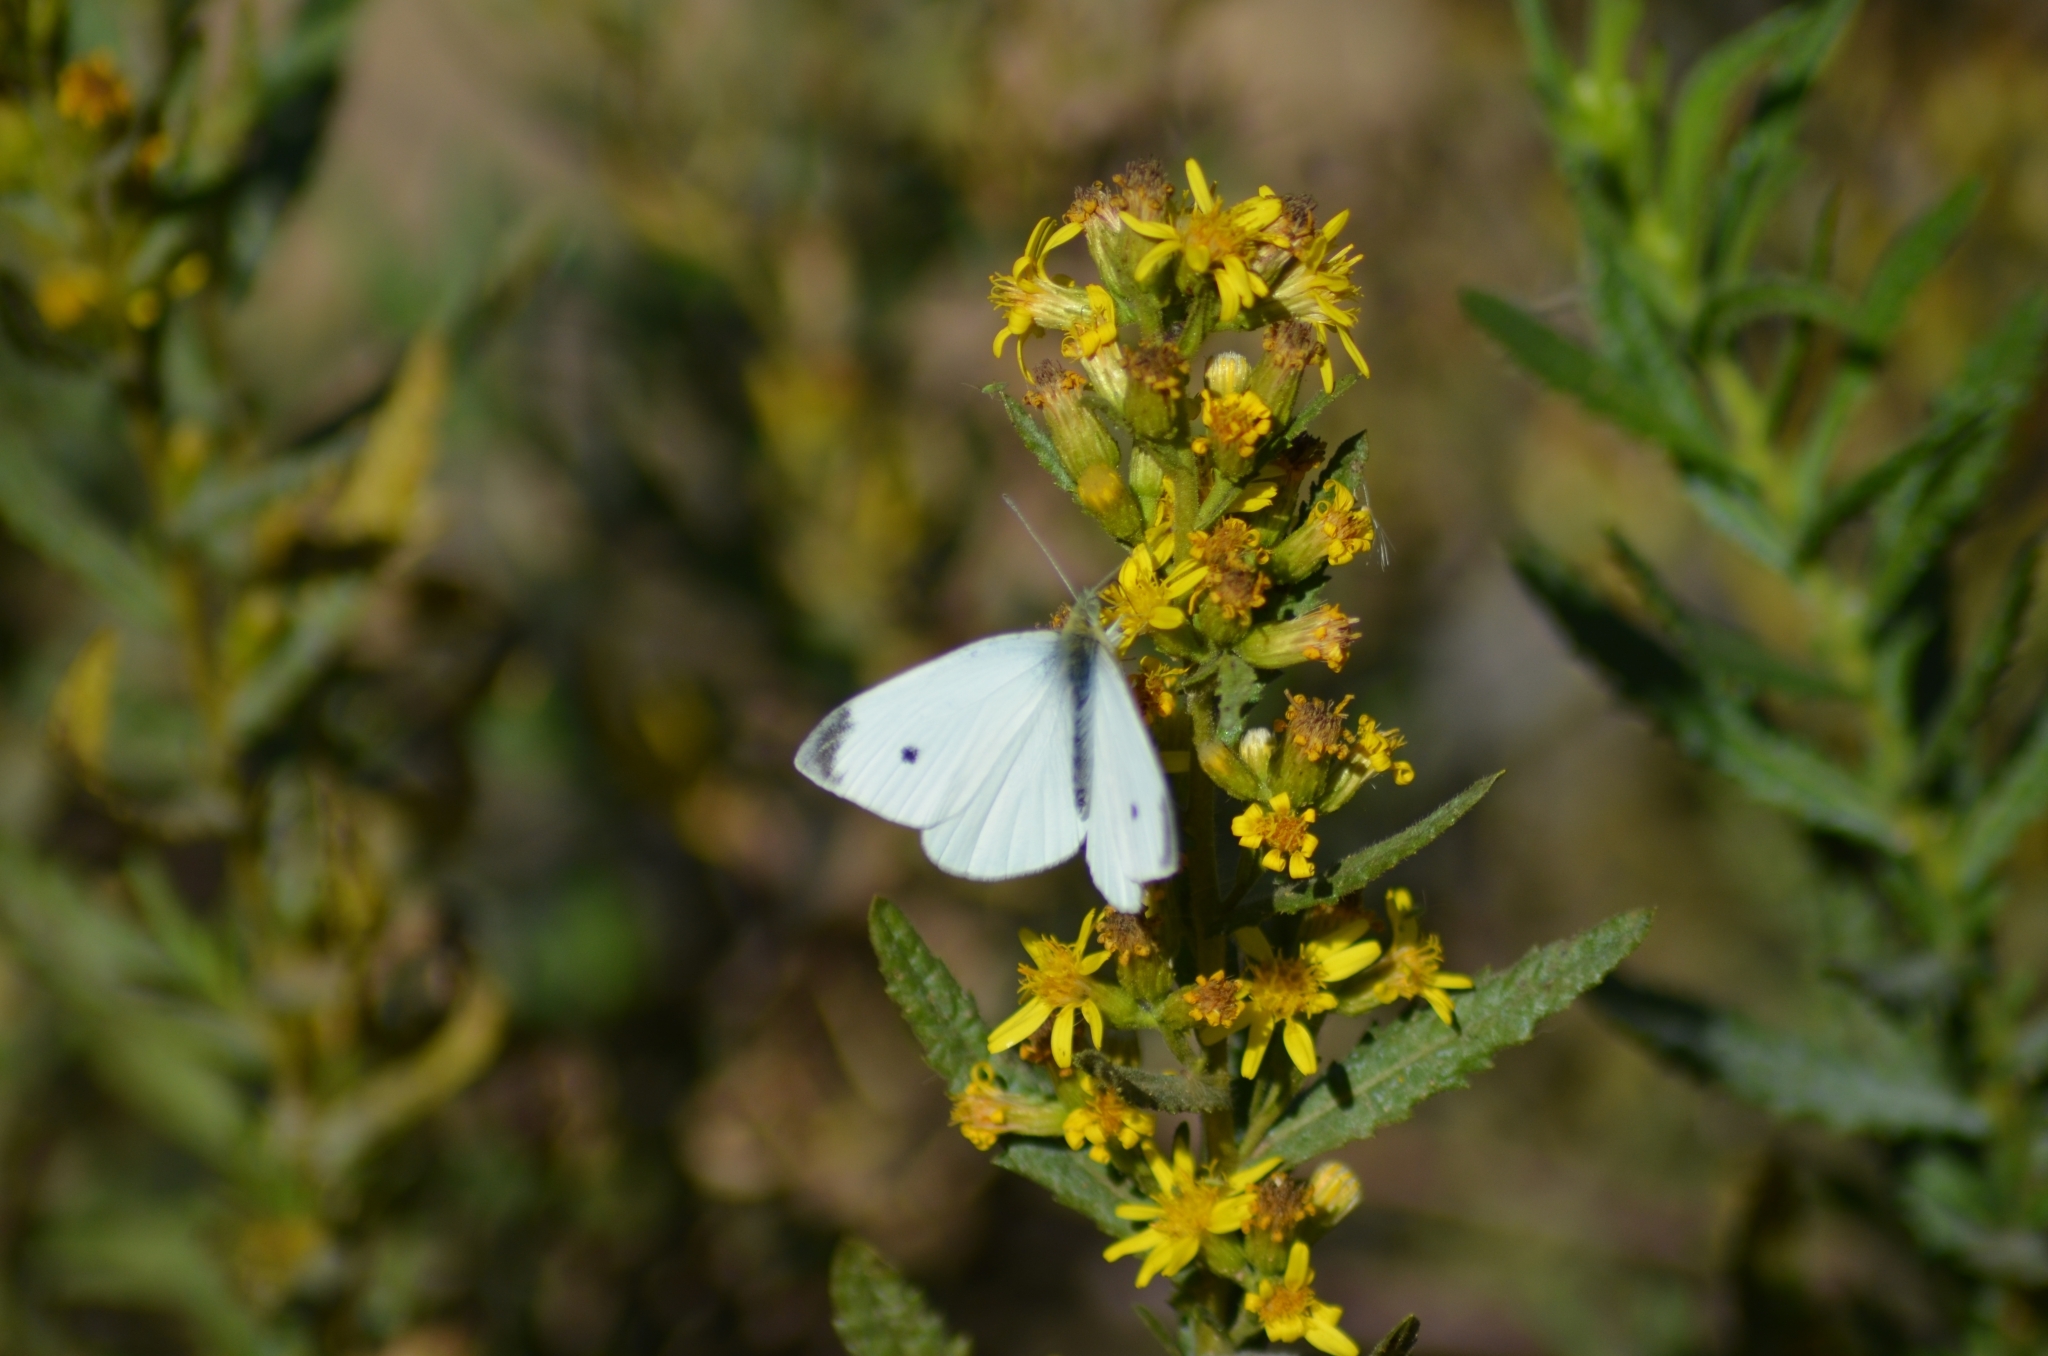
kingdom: Animalia
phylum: Arthropoda
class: Insecta
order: Lepidoptera
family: Pieridae
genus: Pieris
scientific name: Pieris rapae
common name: Small white
